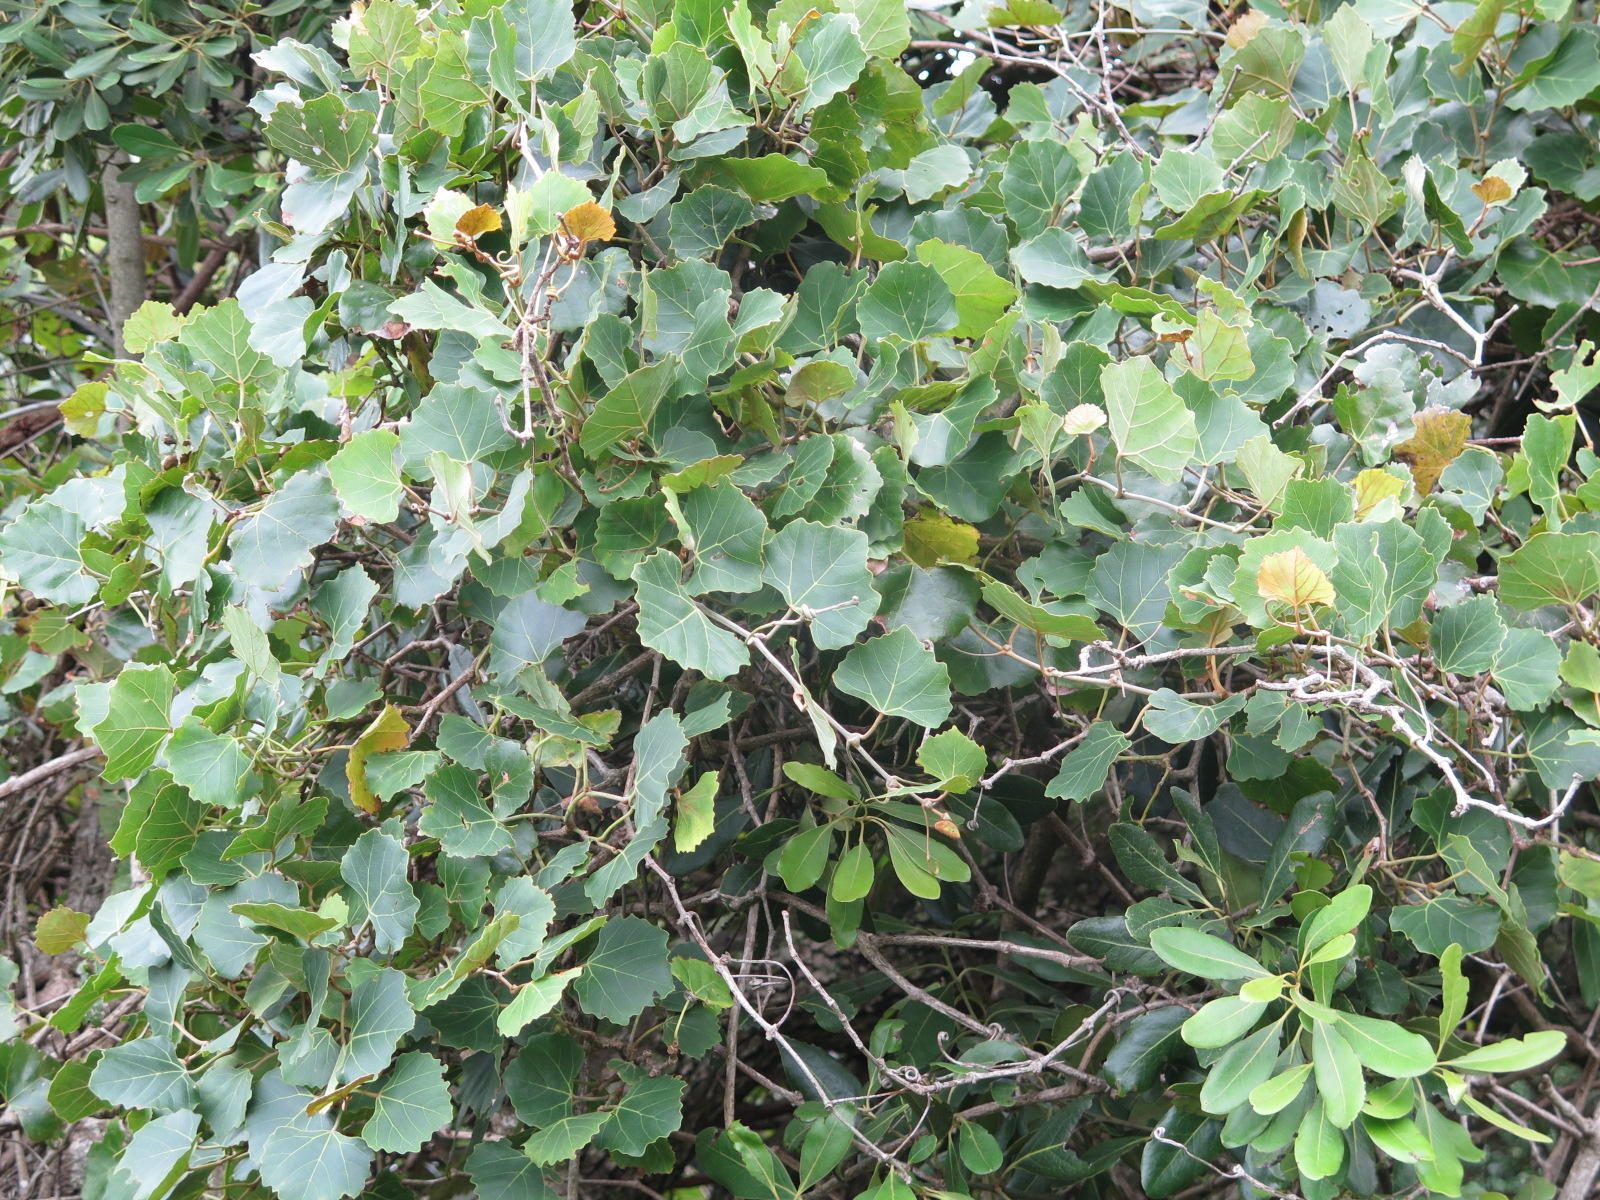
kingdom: Plantae
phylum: Tracheophyta
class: Magnoliopsida
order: Vitales
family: Vitaceae
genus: Rhoicissus
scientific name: Rhoicissus tomentosa
